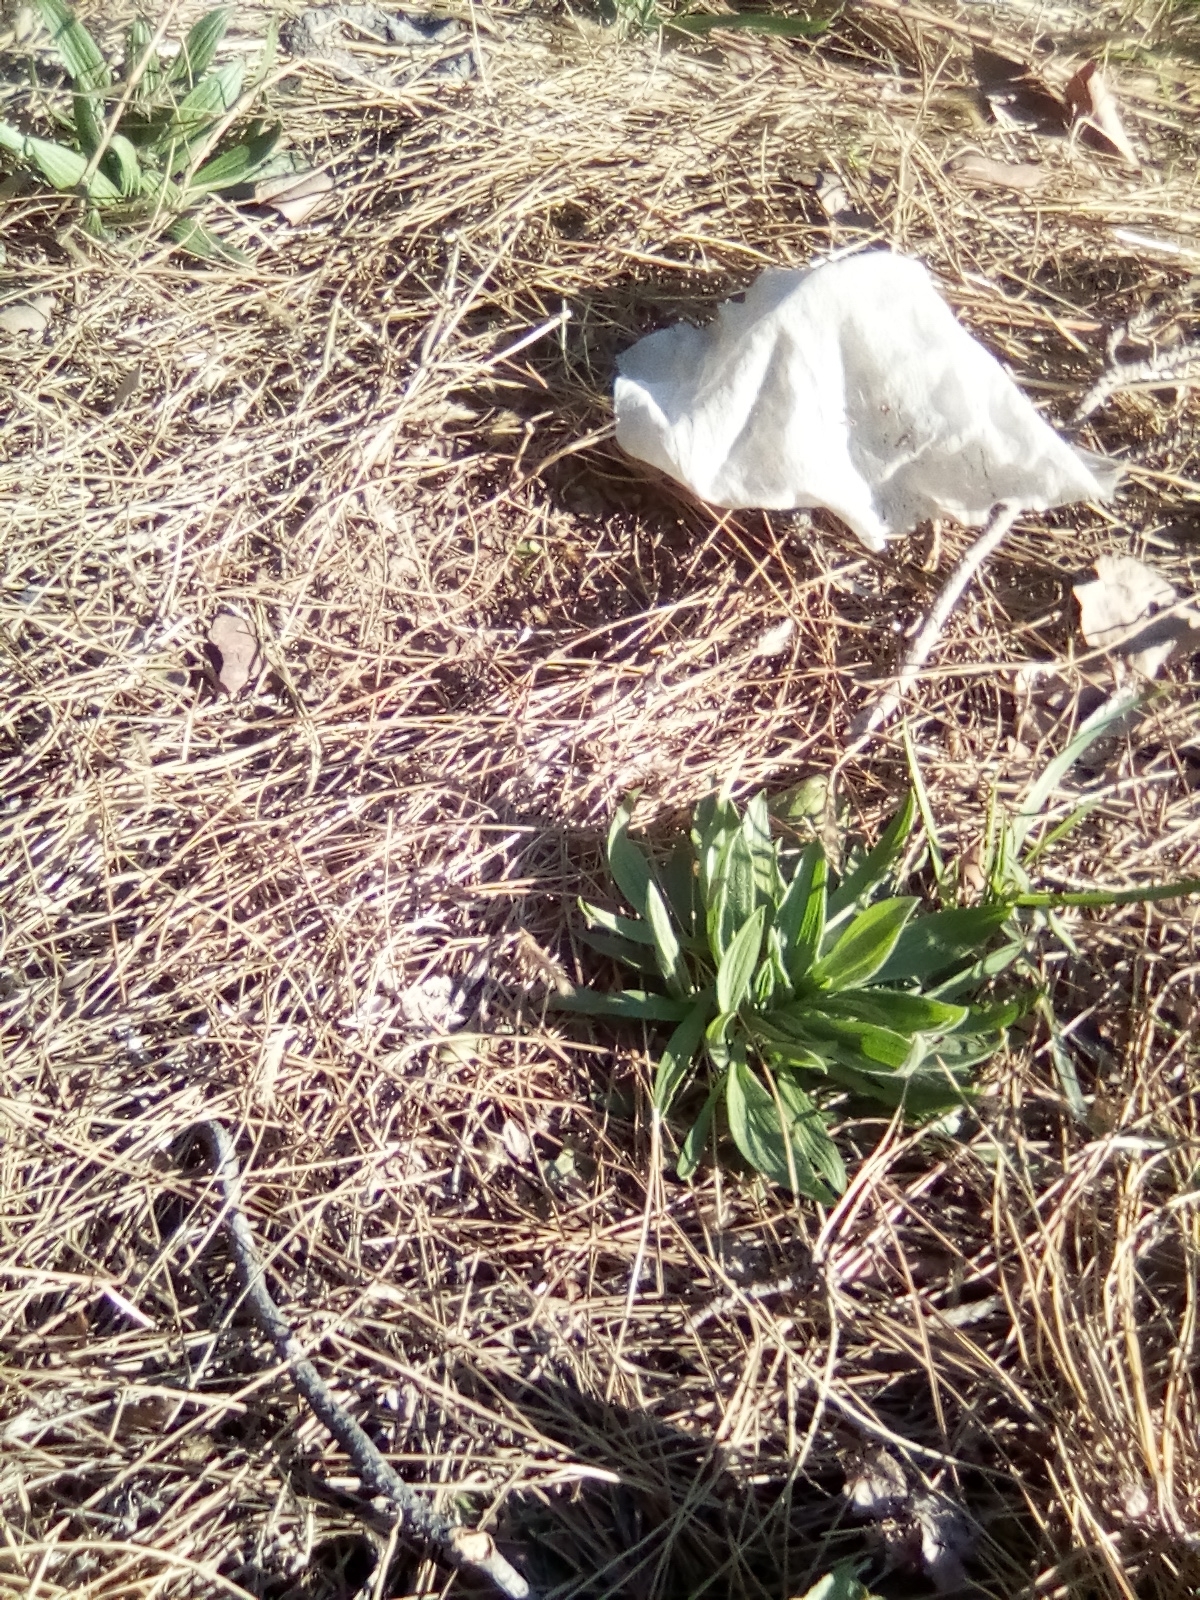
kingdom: Plantae
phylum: Tracheophyta
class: Magnoliopsida
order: Lamiales
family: Plantaginaceae
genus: Plantago
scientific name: Plantago lanceolata
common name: Ribwort plantain
